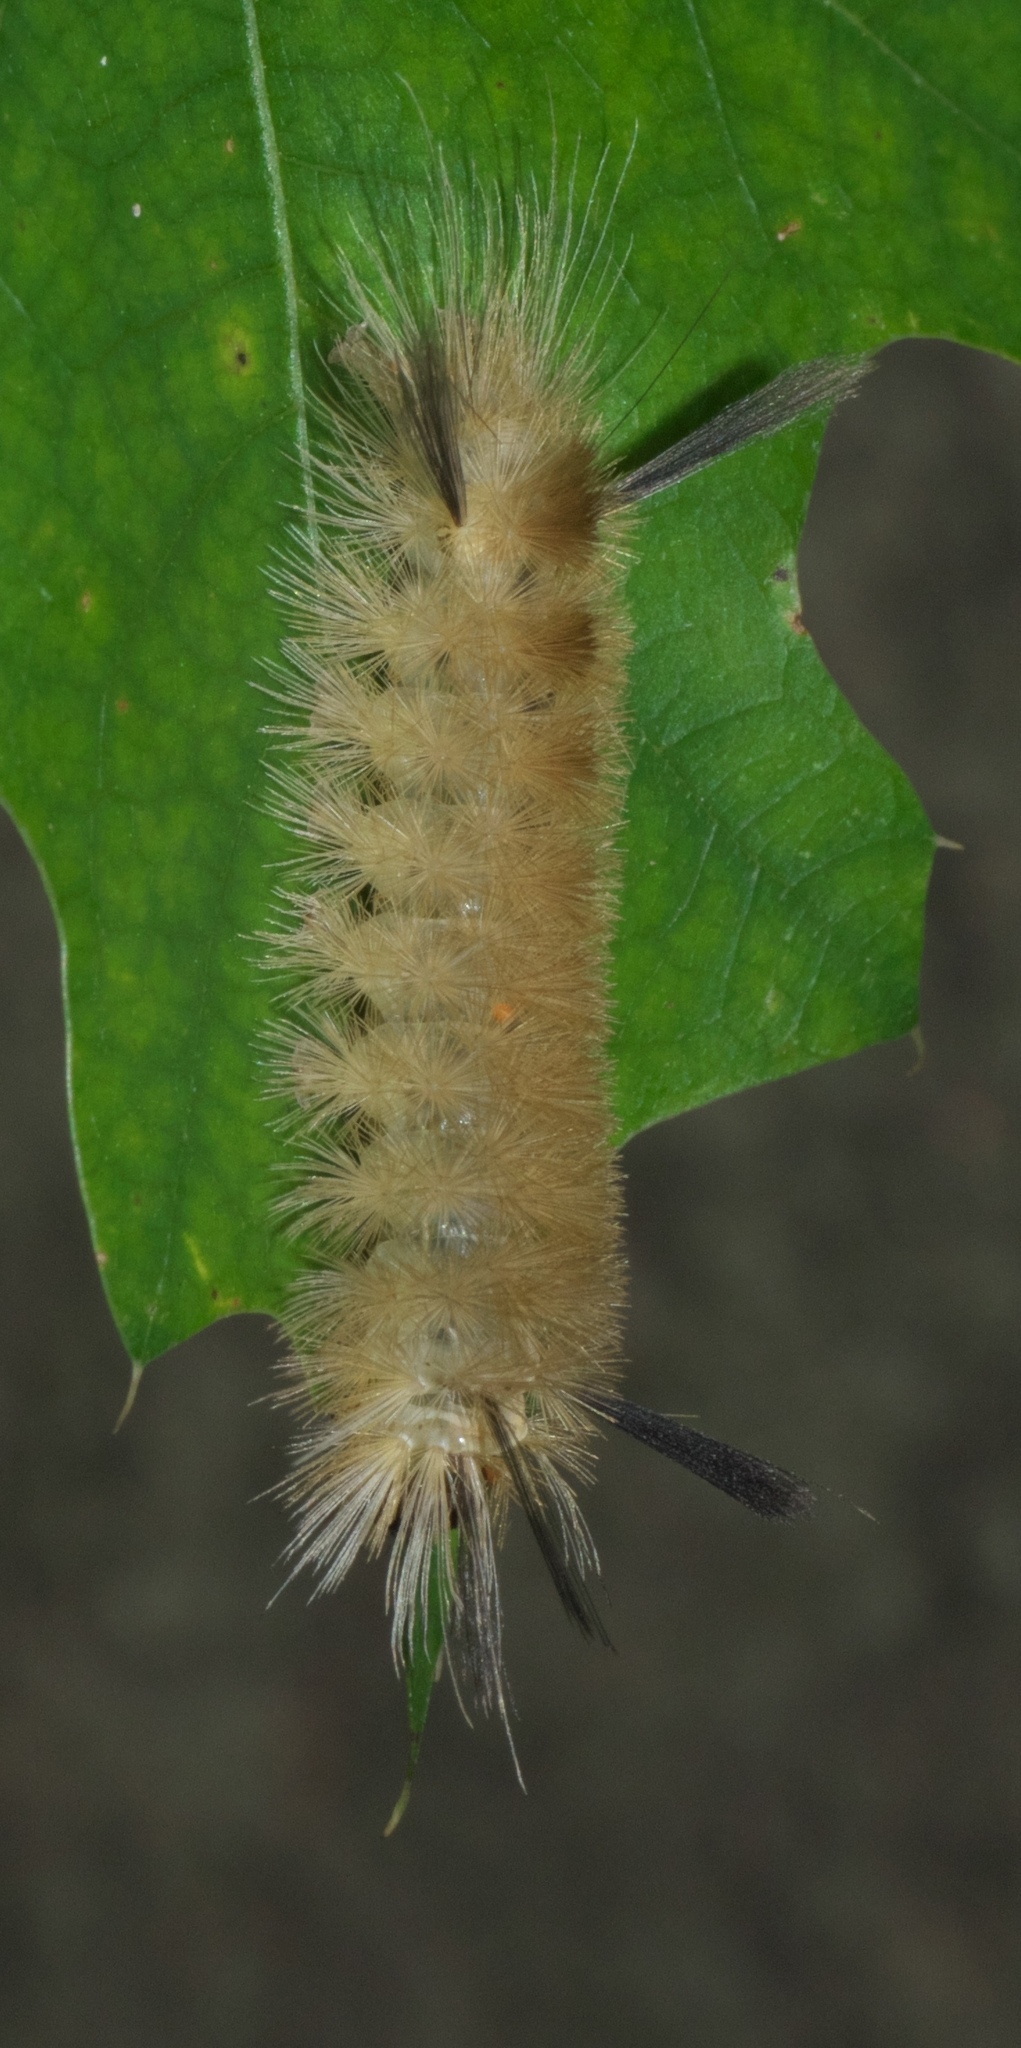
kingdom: Animalia
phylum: Arthropoda
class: Insecta
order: Lepidoptera
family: Erebidae
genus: Halysidota
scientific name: Halysidota tessellaris
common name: Banded tussock moth
